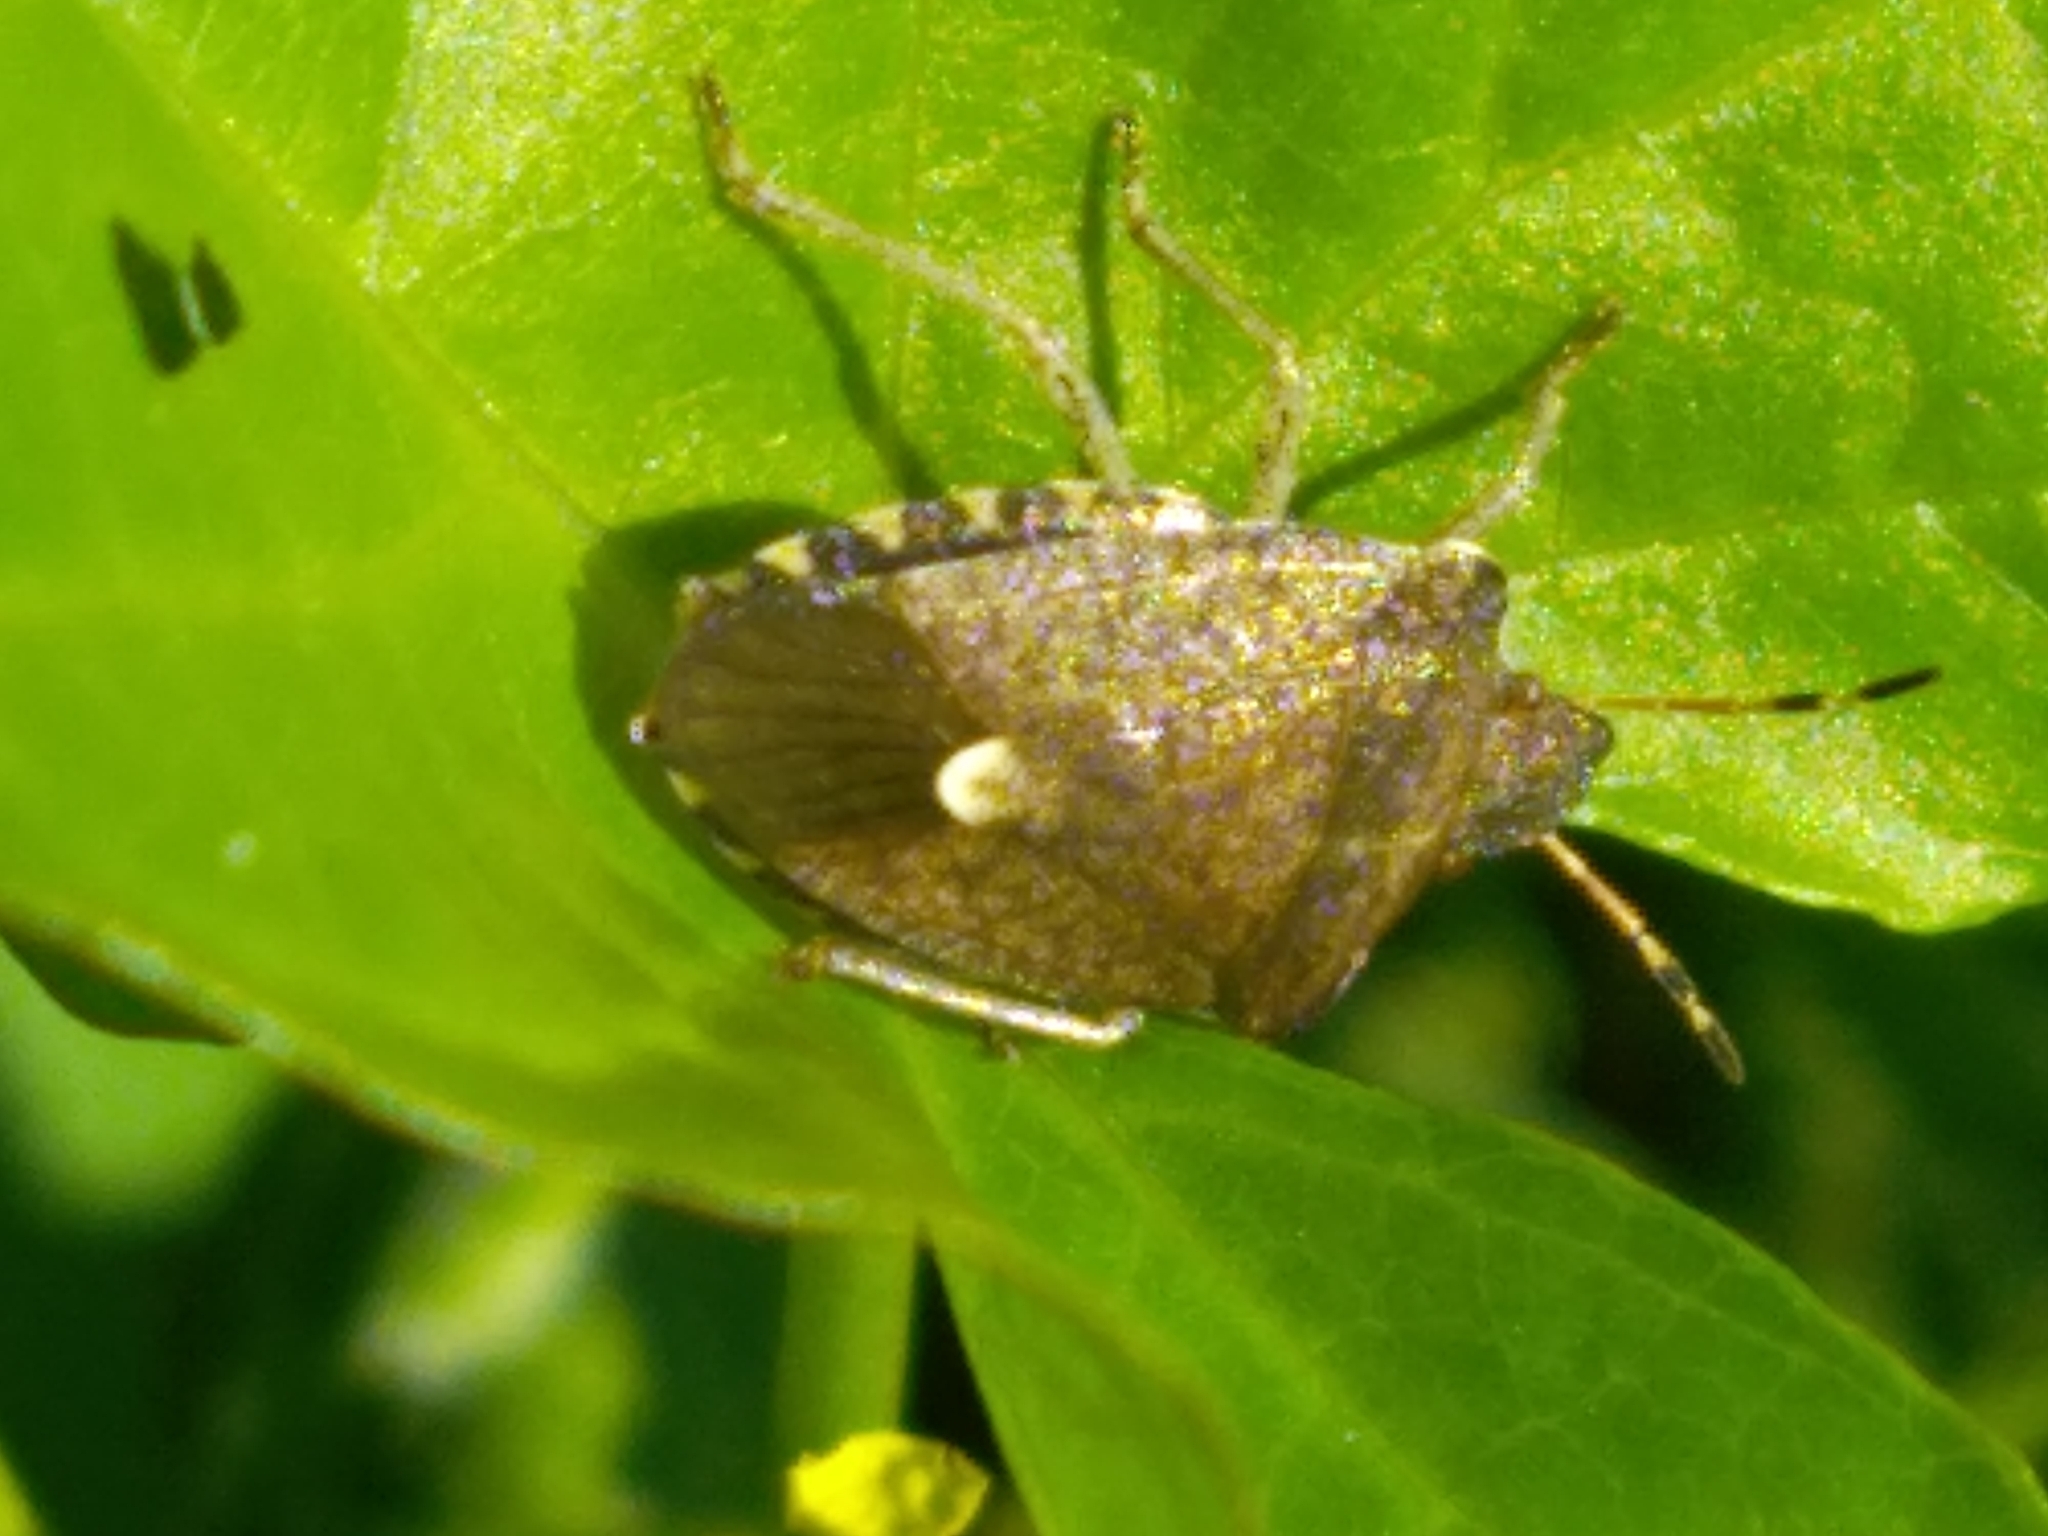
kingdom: Animalia
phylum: Arthropoda
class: Insecta
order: Hemiptera
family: Pentatomidae
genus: Holcostethus
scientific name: Holcostethus strictus
